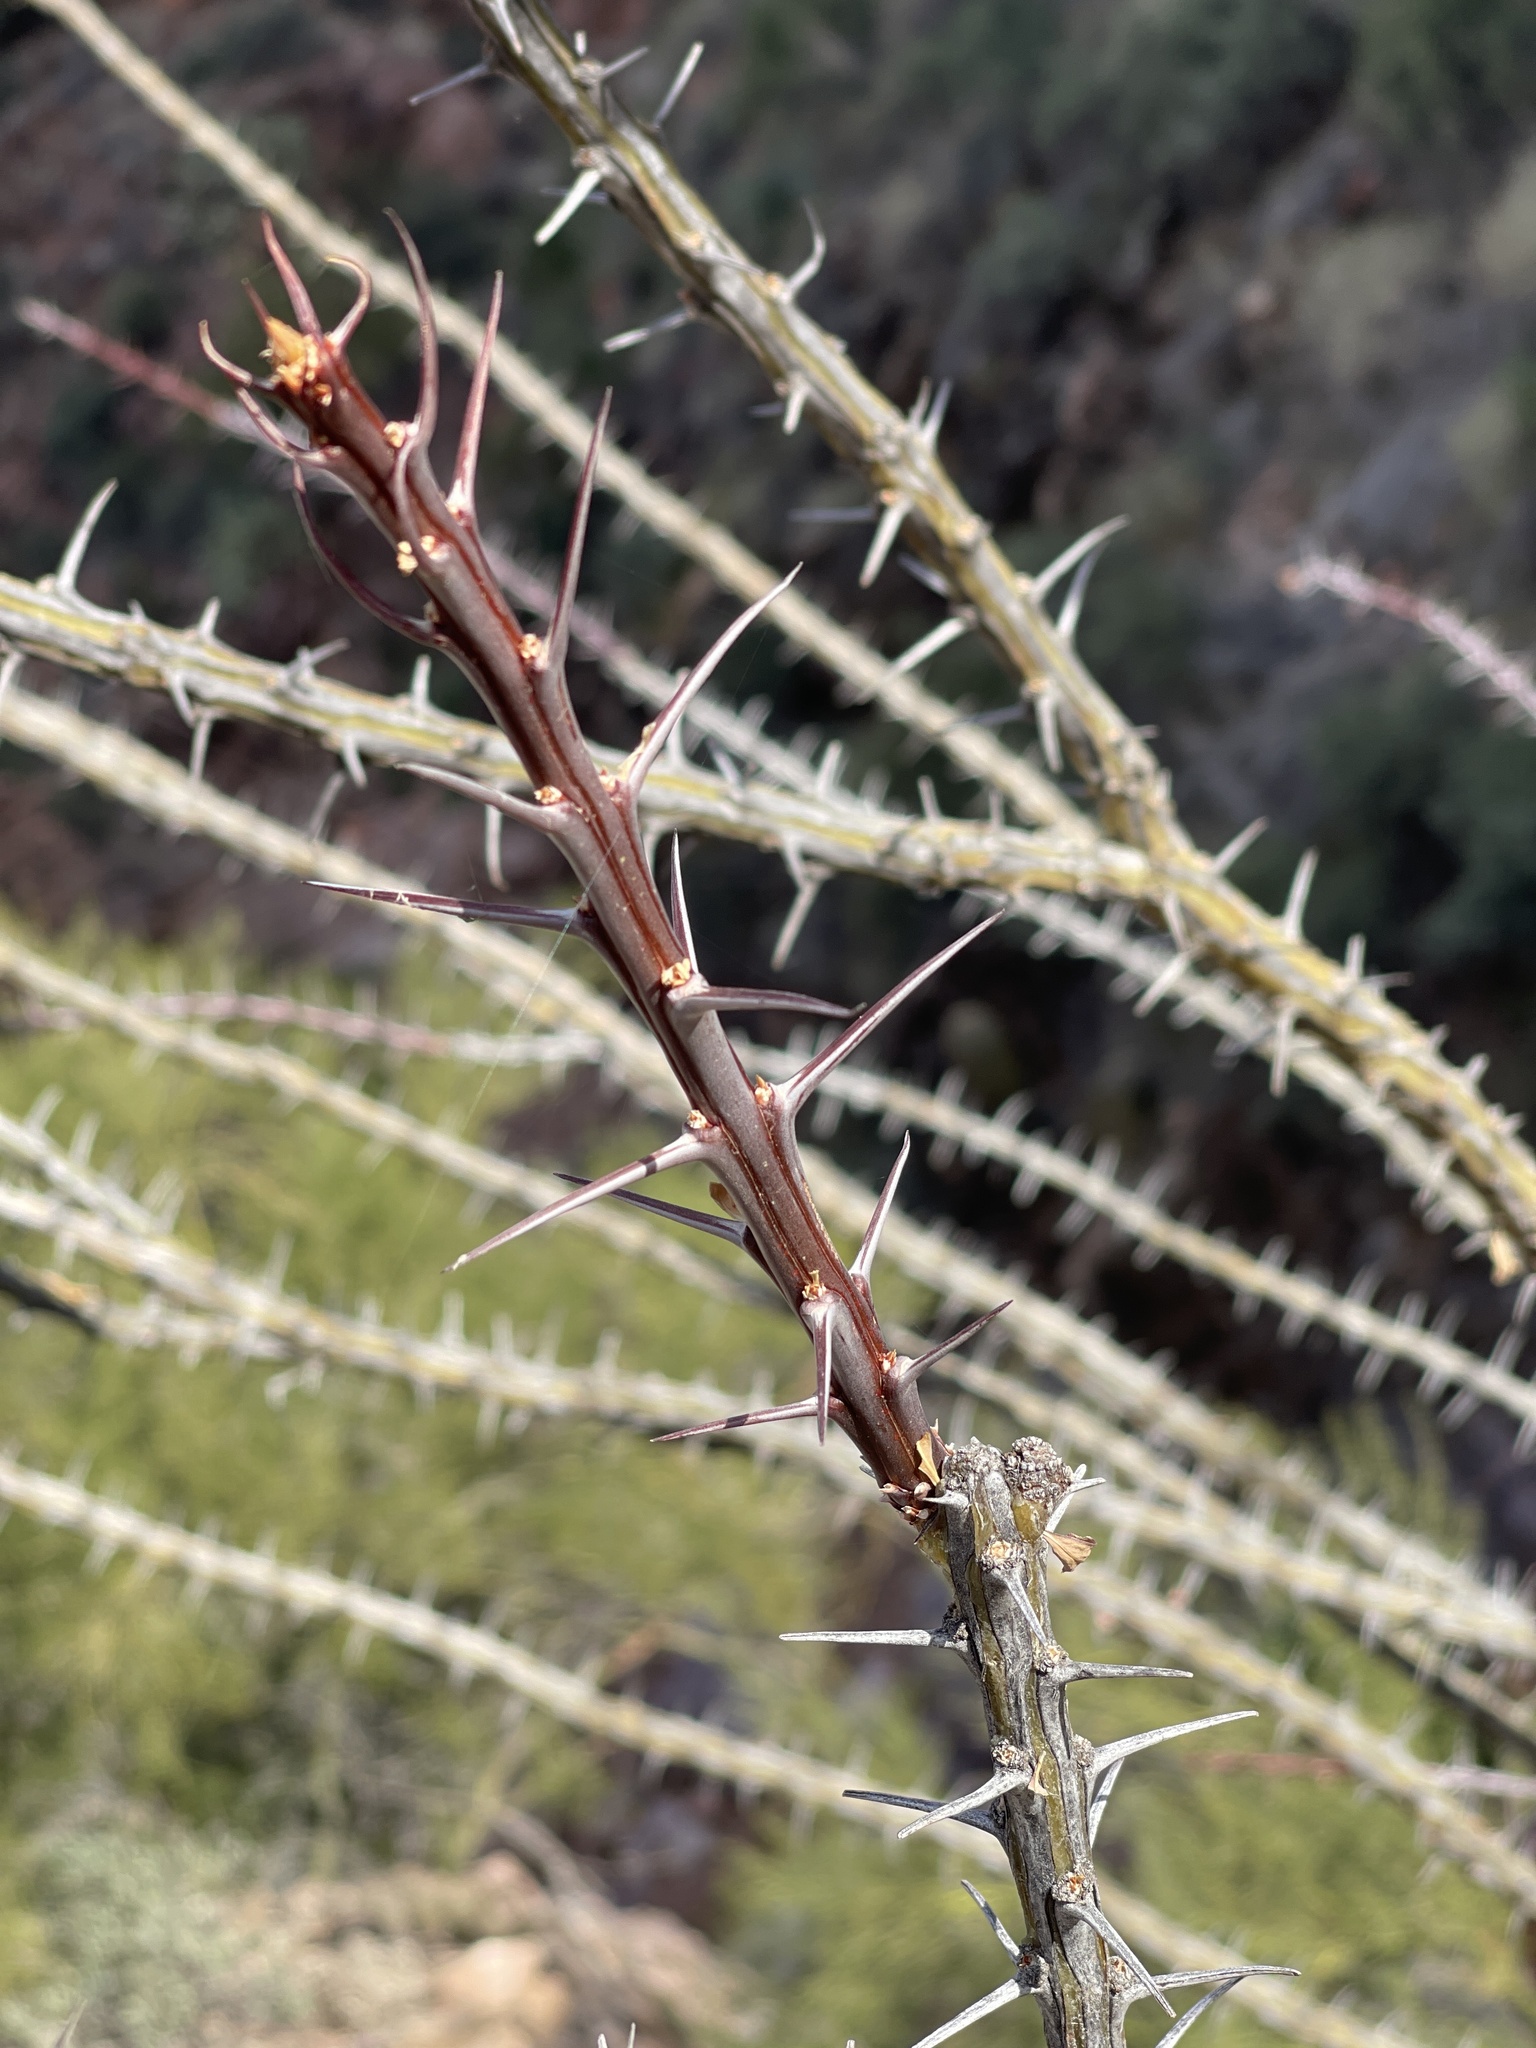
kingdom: Plantae
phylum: Tracheophyta
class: Magnoliopsida
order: Ericales
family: Fouquieriaceae
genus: Fouquieria
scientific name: Fouquieria splendens
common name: Vine-cactus
